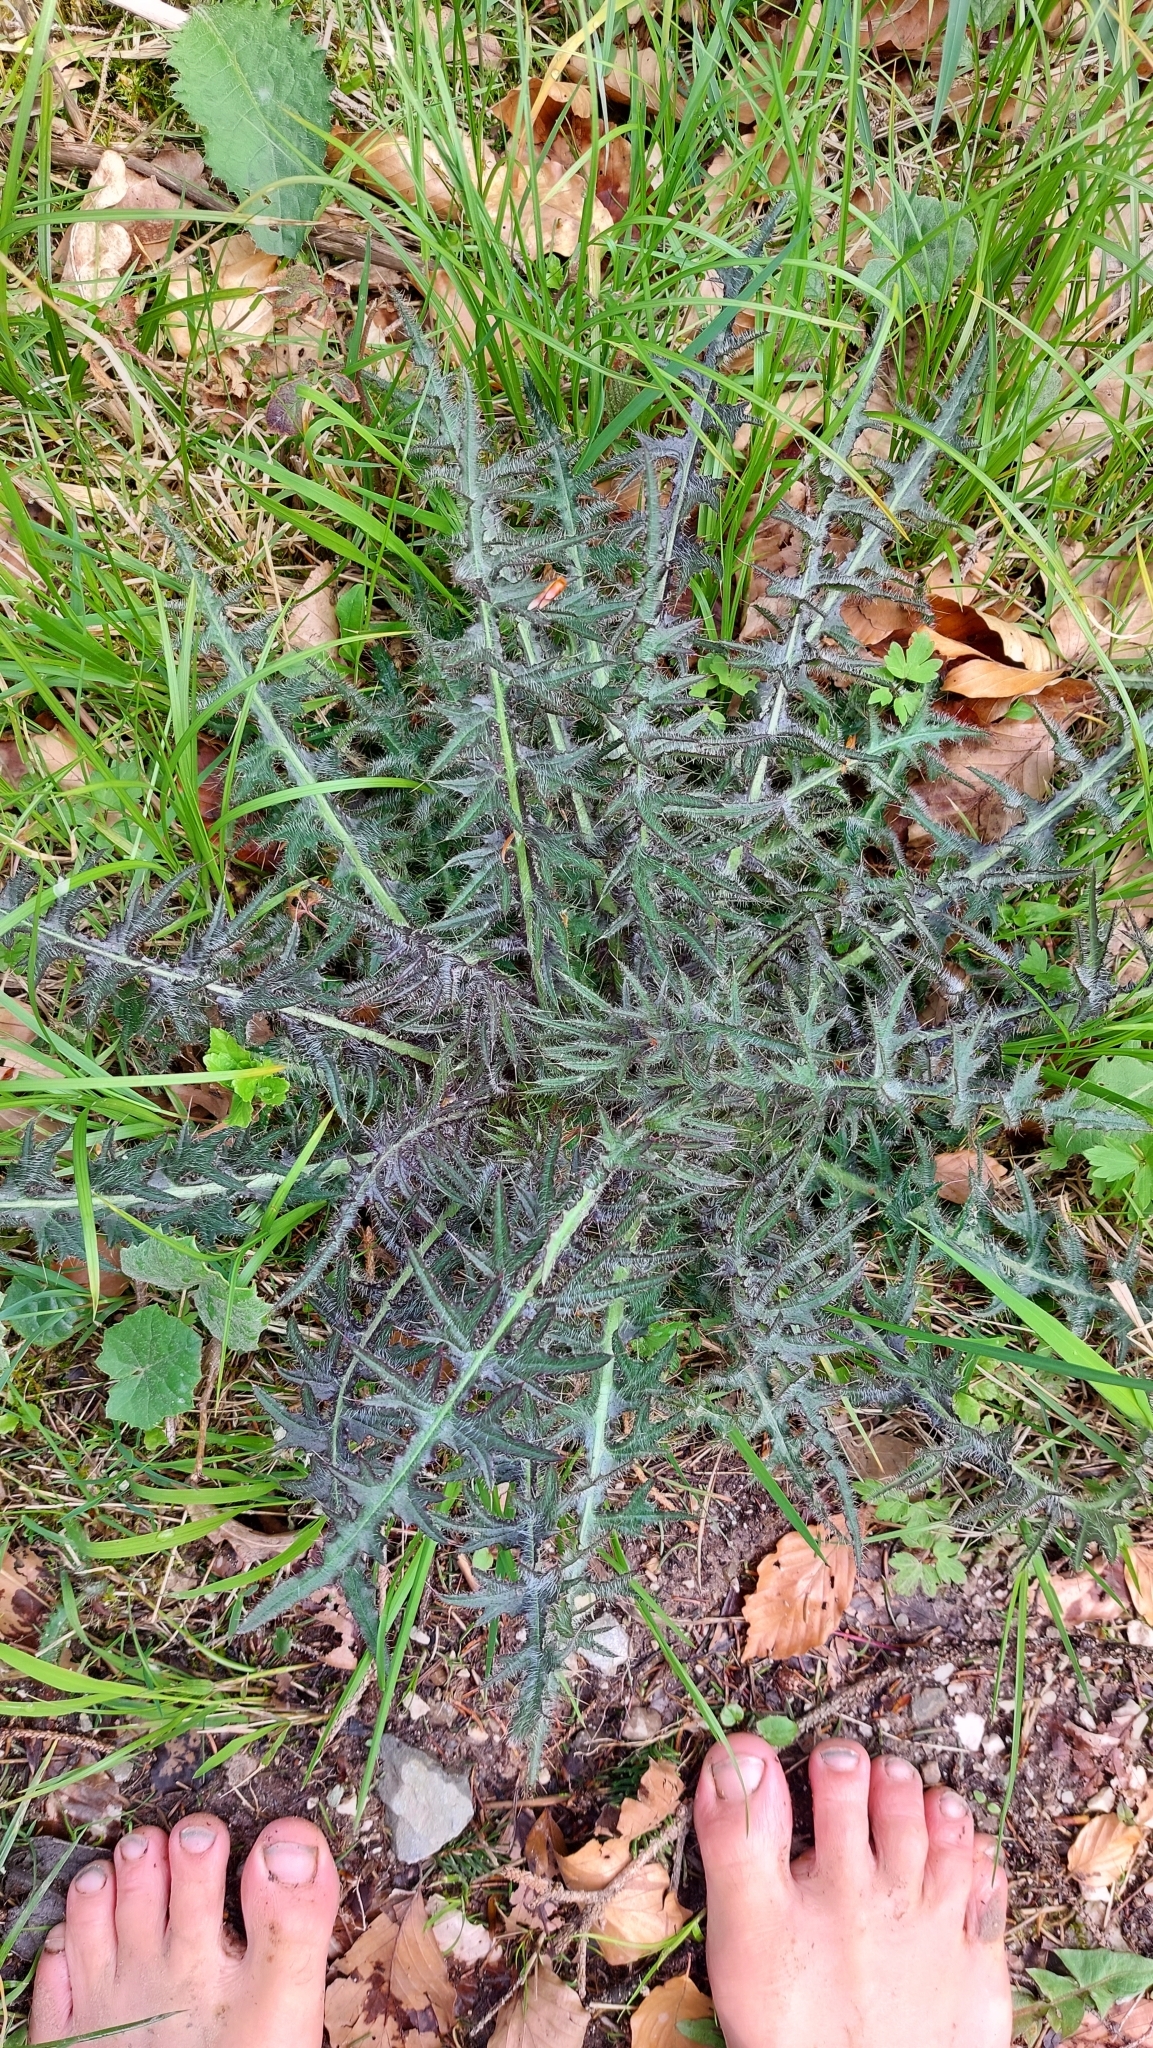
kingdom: Plantae
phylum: Tracheophyta
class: Magnoliopsida
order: Asterales
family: Asteraceae
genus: Cirsium
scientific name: Cirsium palustre
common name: Marsh thistle
